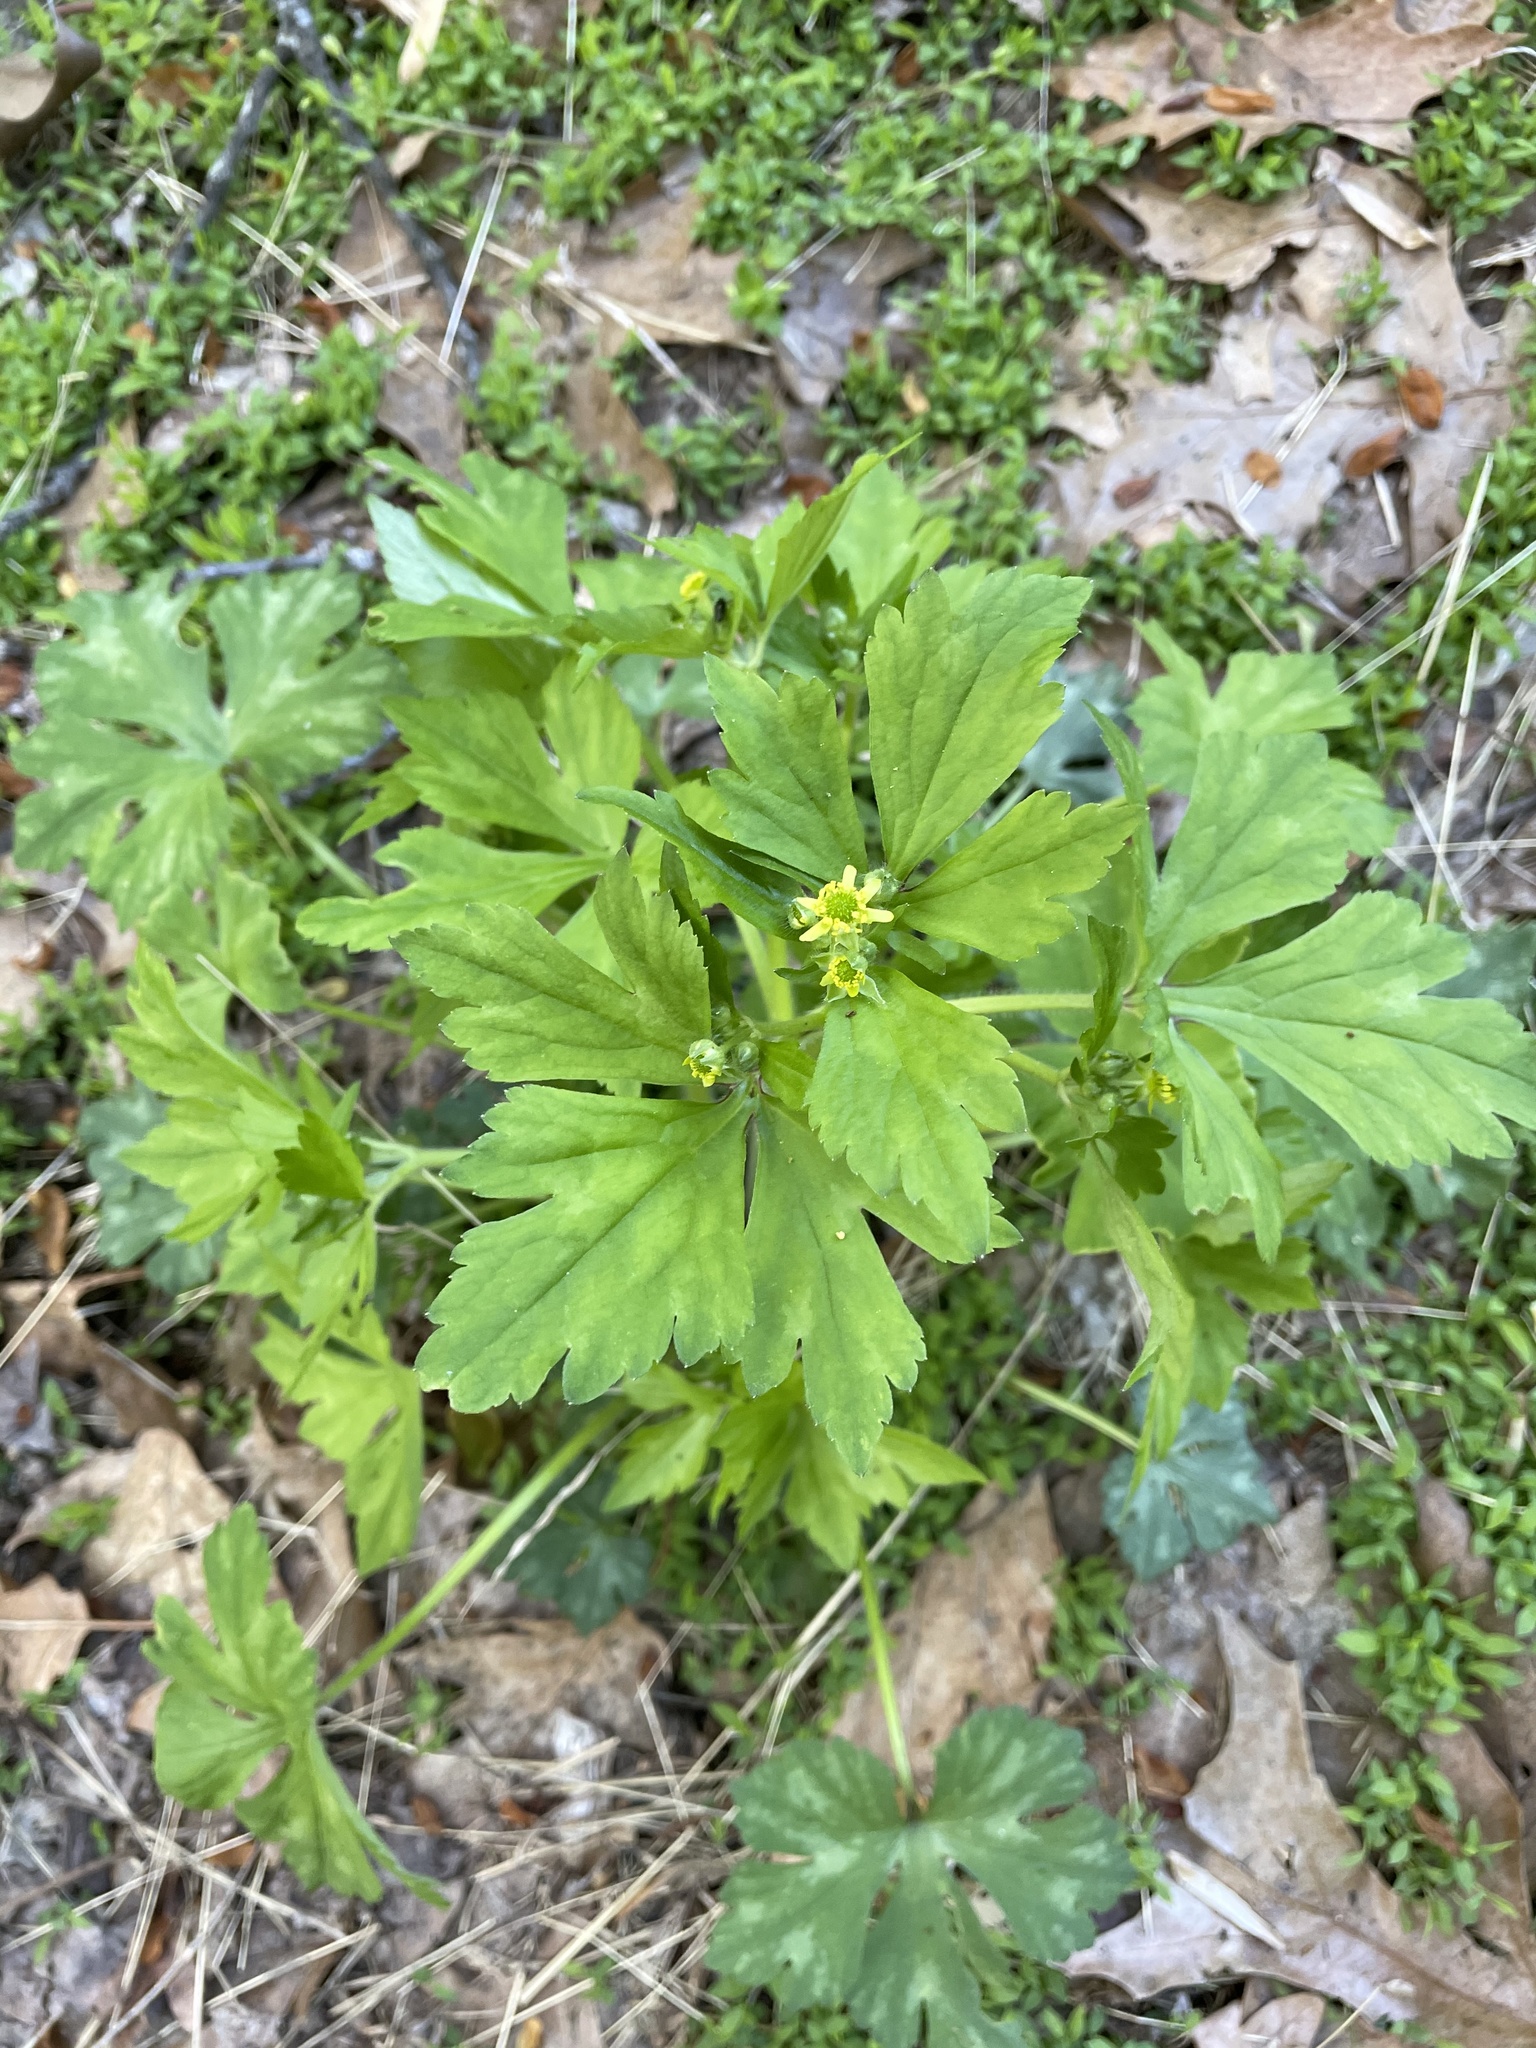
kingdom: Plantae
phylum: Tracheophyta
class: Magnoliopsida
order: Ranunculales
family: Ranunculaceae
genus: Ranunculus
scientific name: Ranunculus recurvatus
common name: Blisterwort
